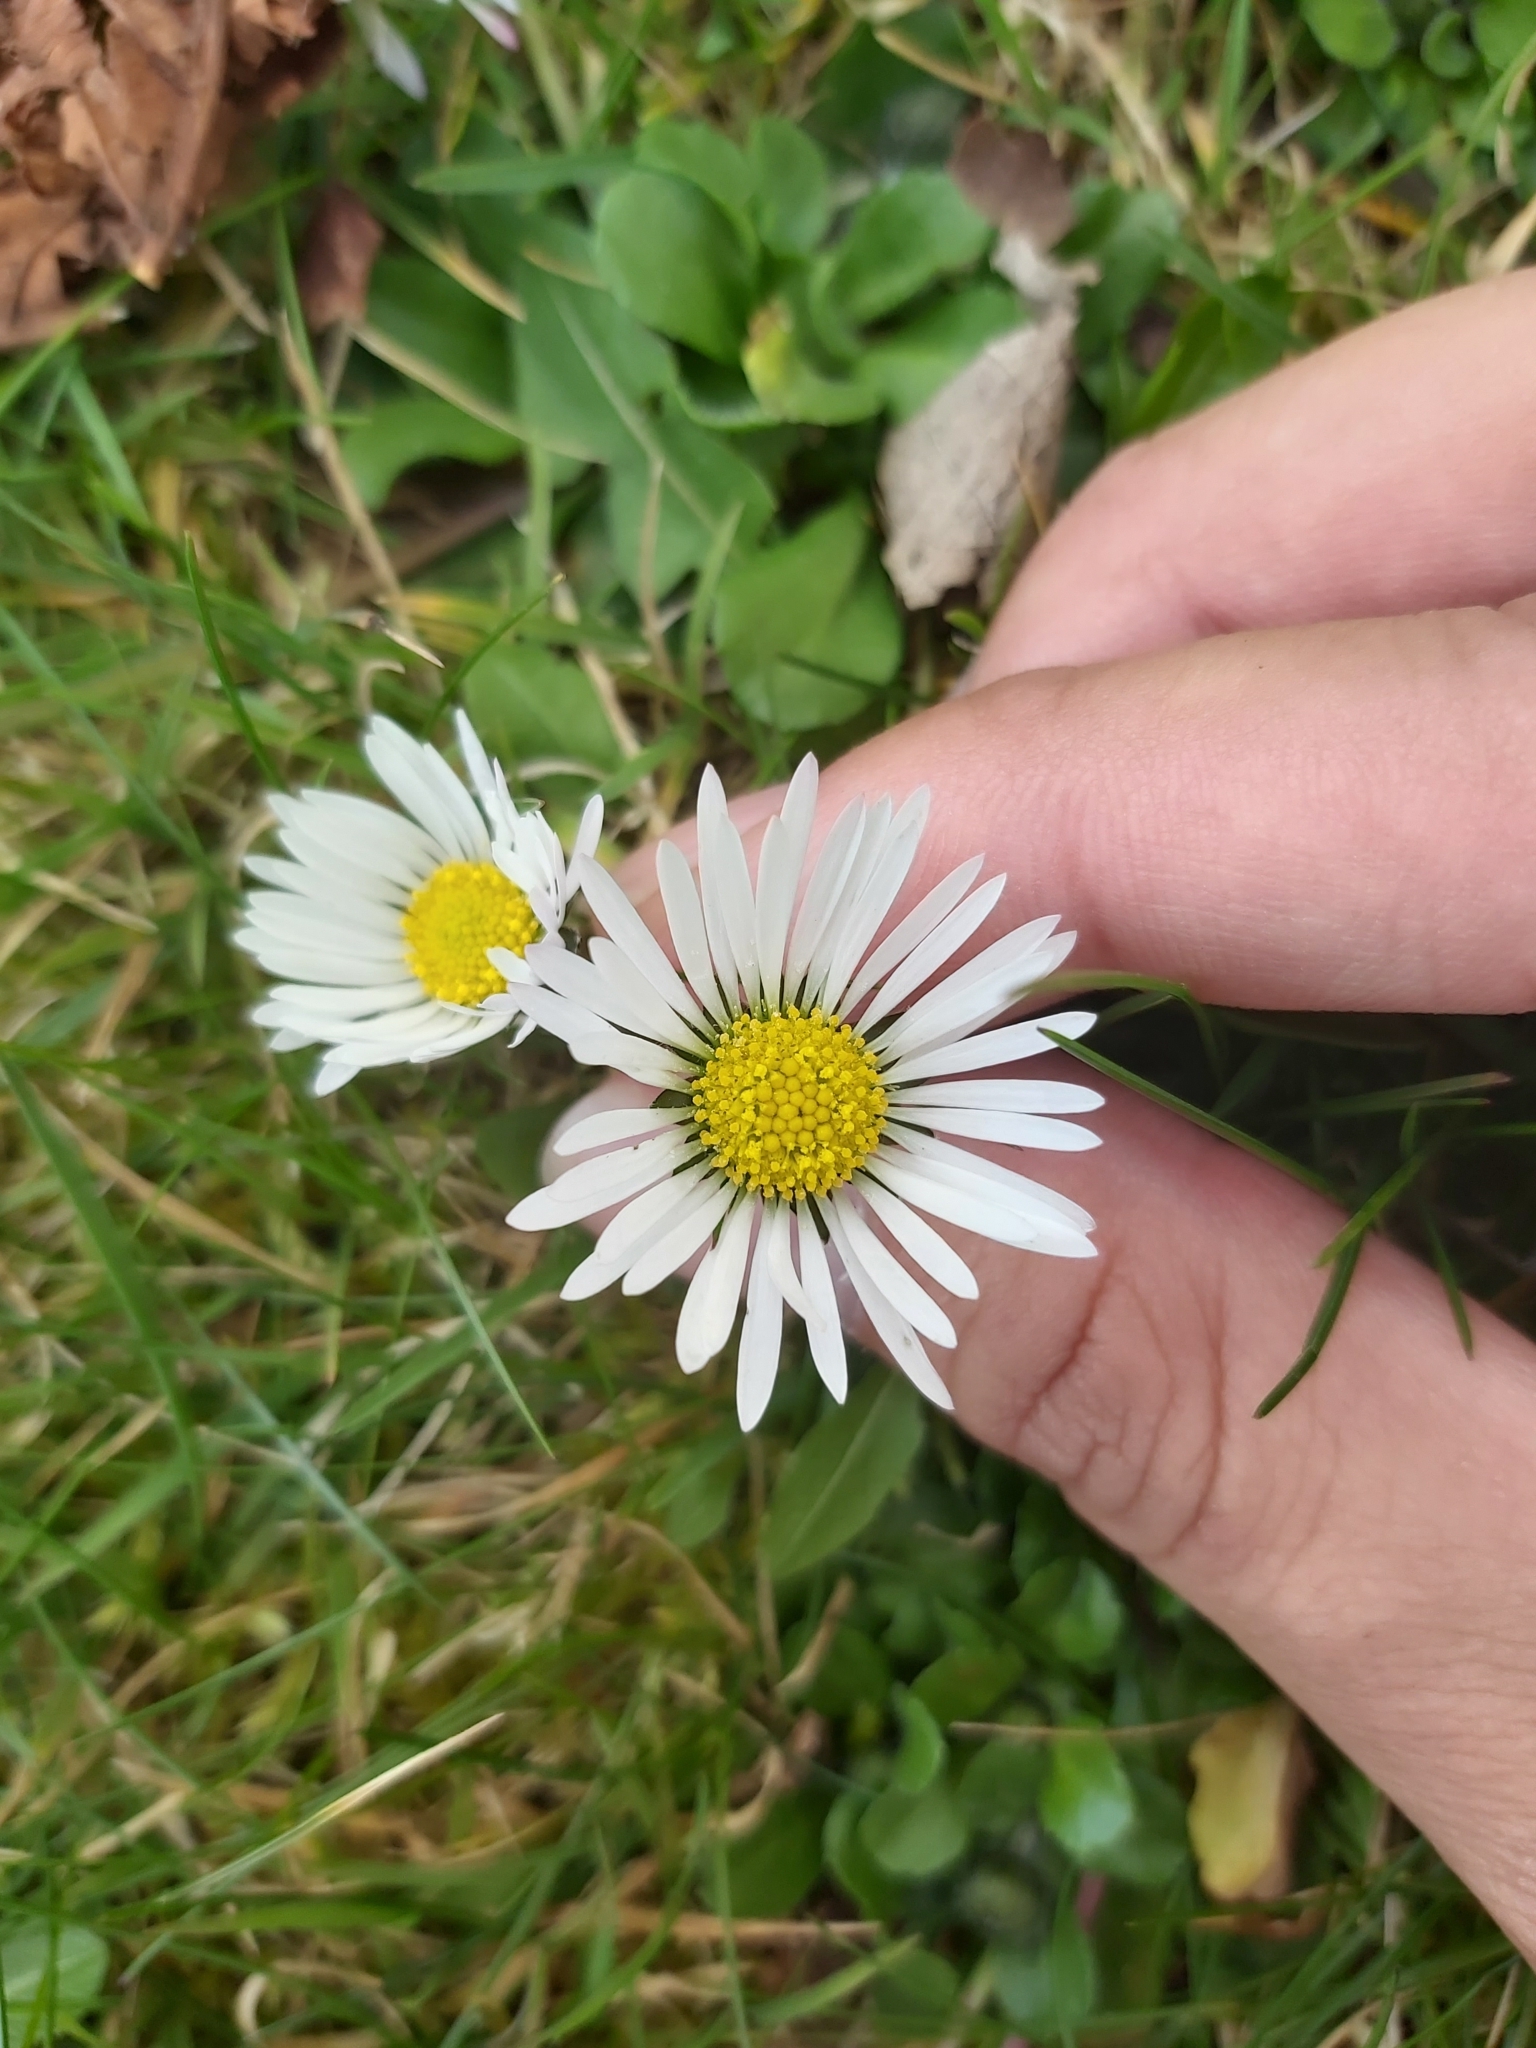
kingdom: Plantae
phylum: Tracheophyta
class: Magnoliopsida
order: Asterales
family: Asteraceae
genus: Bellis
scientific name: Bellis perennis
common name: Lawndaisy
